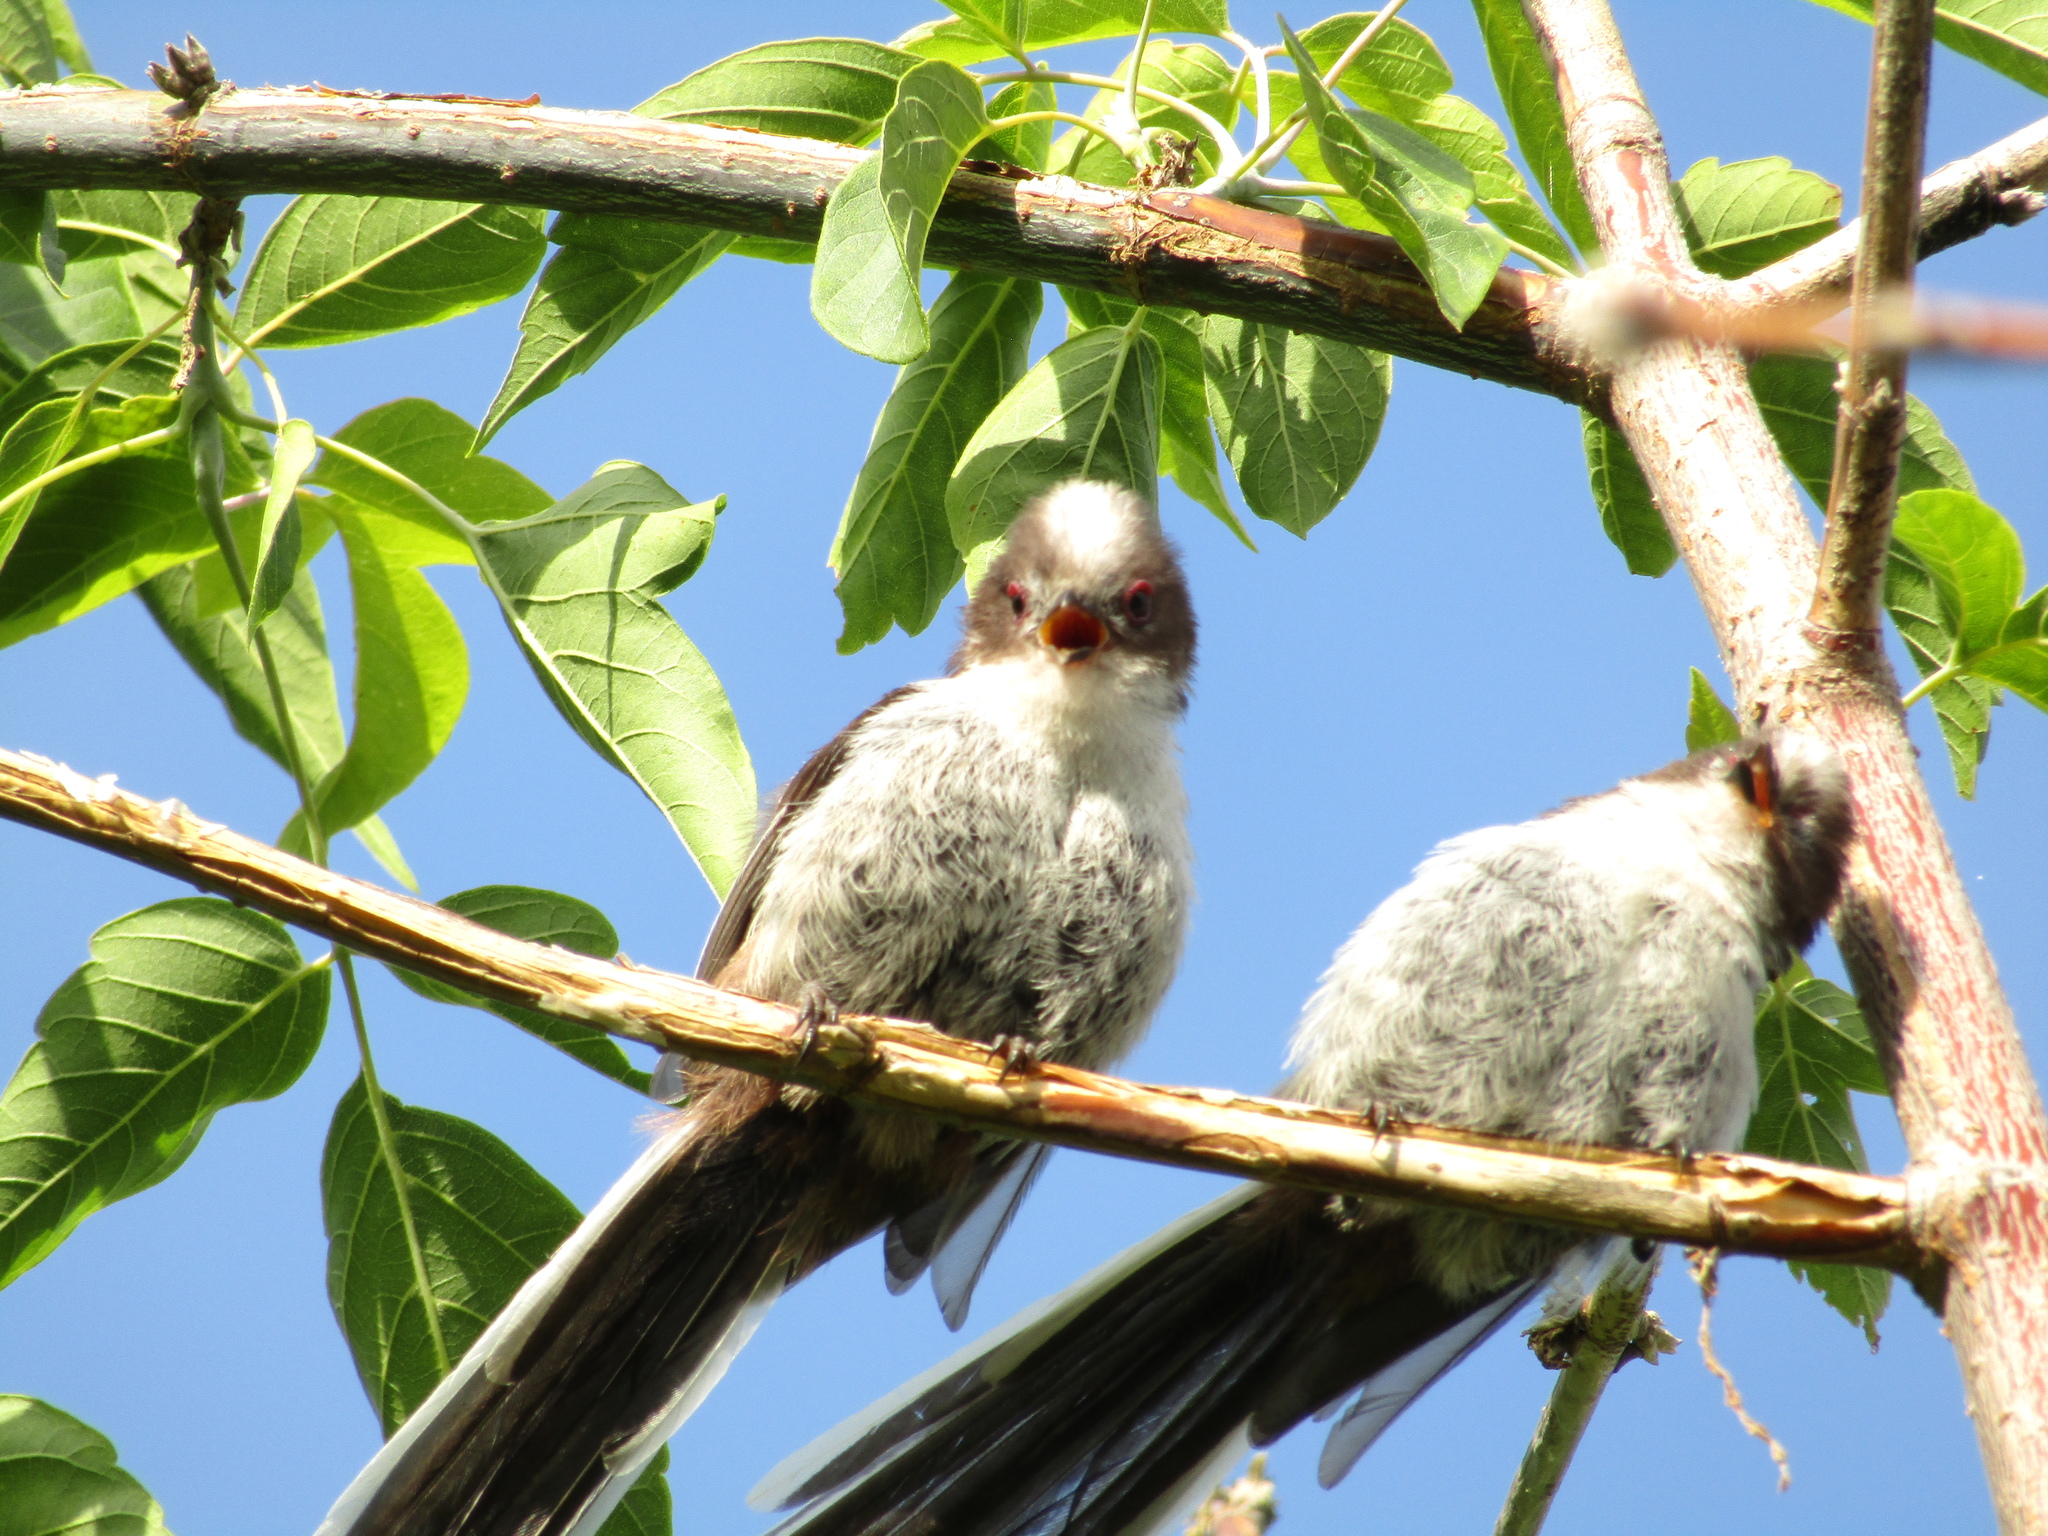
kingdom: Animalia
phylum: Chordata
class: Aves
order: Passeriformes
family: Aegithalidae
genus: Aegithalos
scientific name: Aegithalos caudatus
